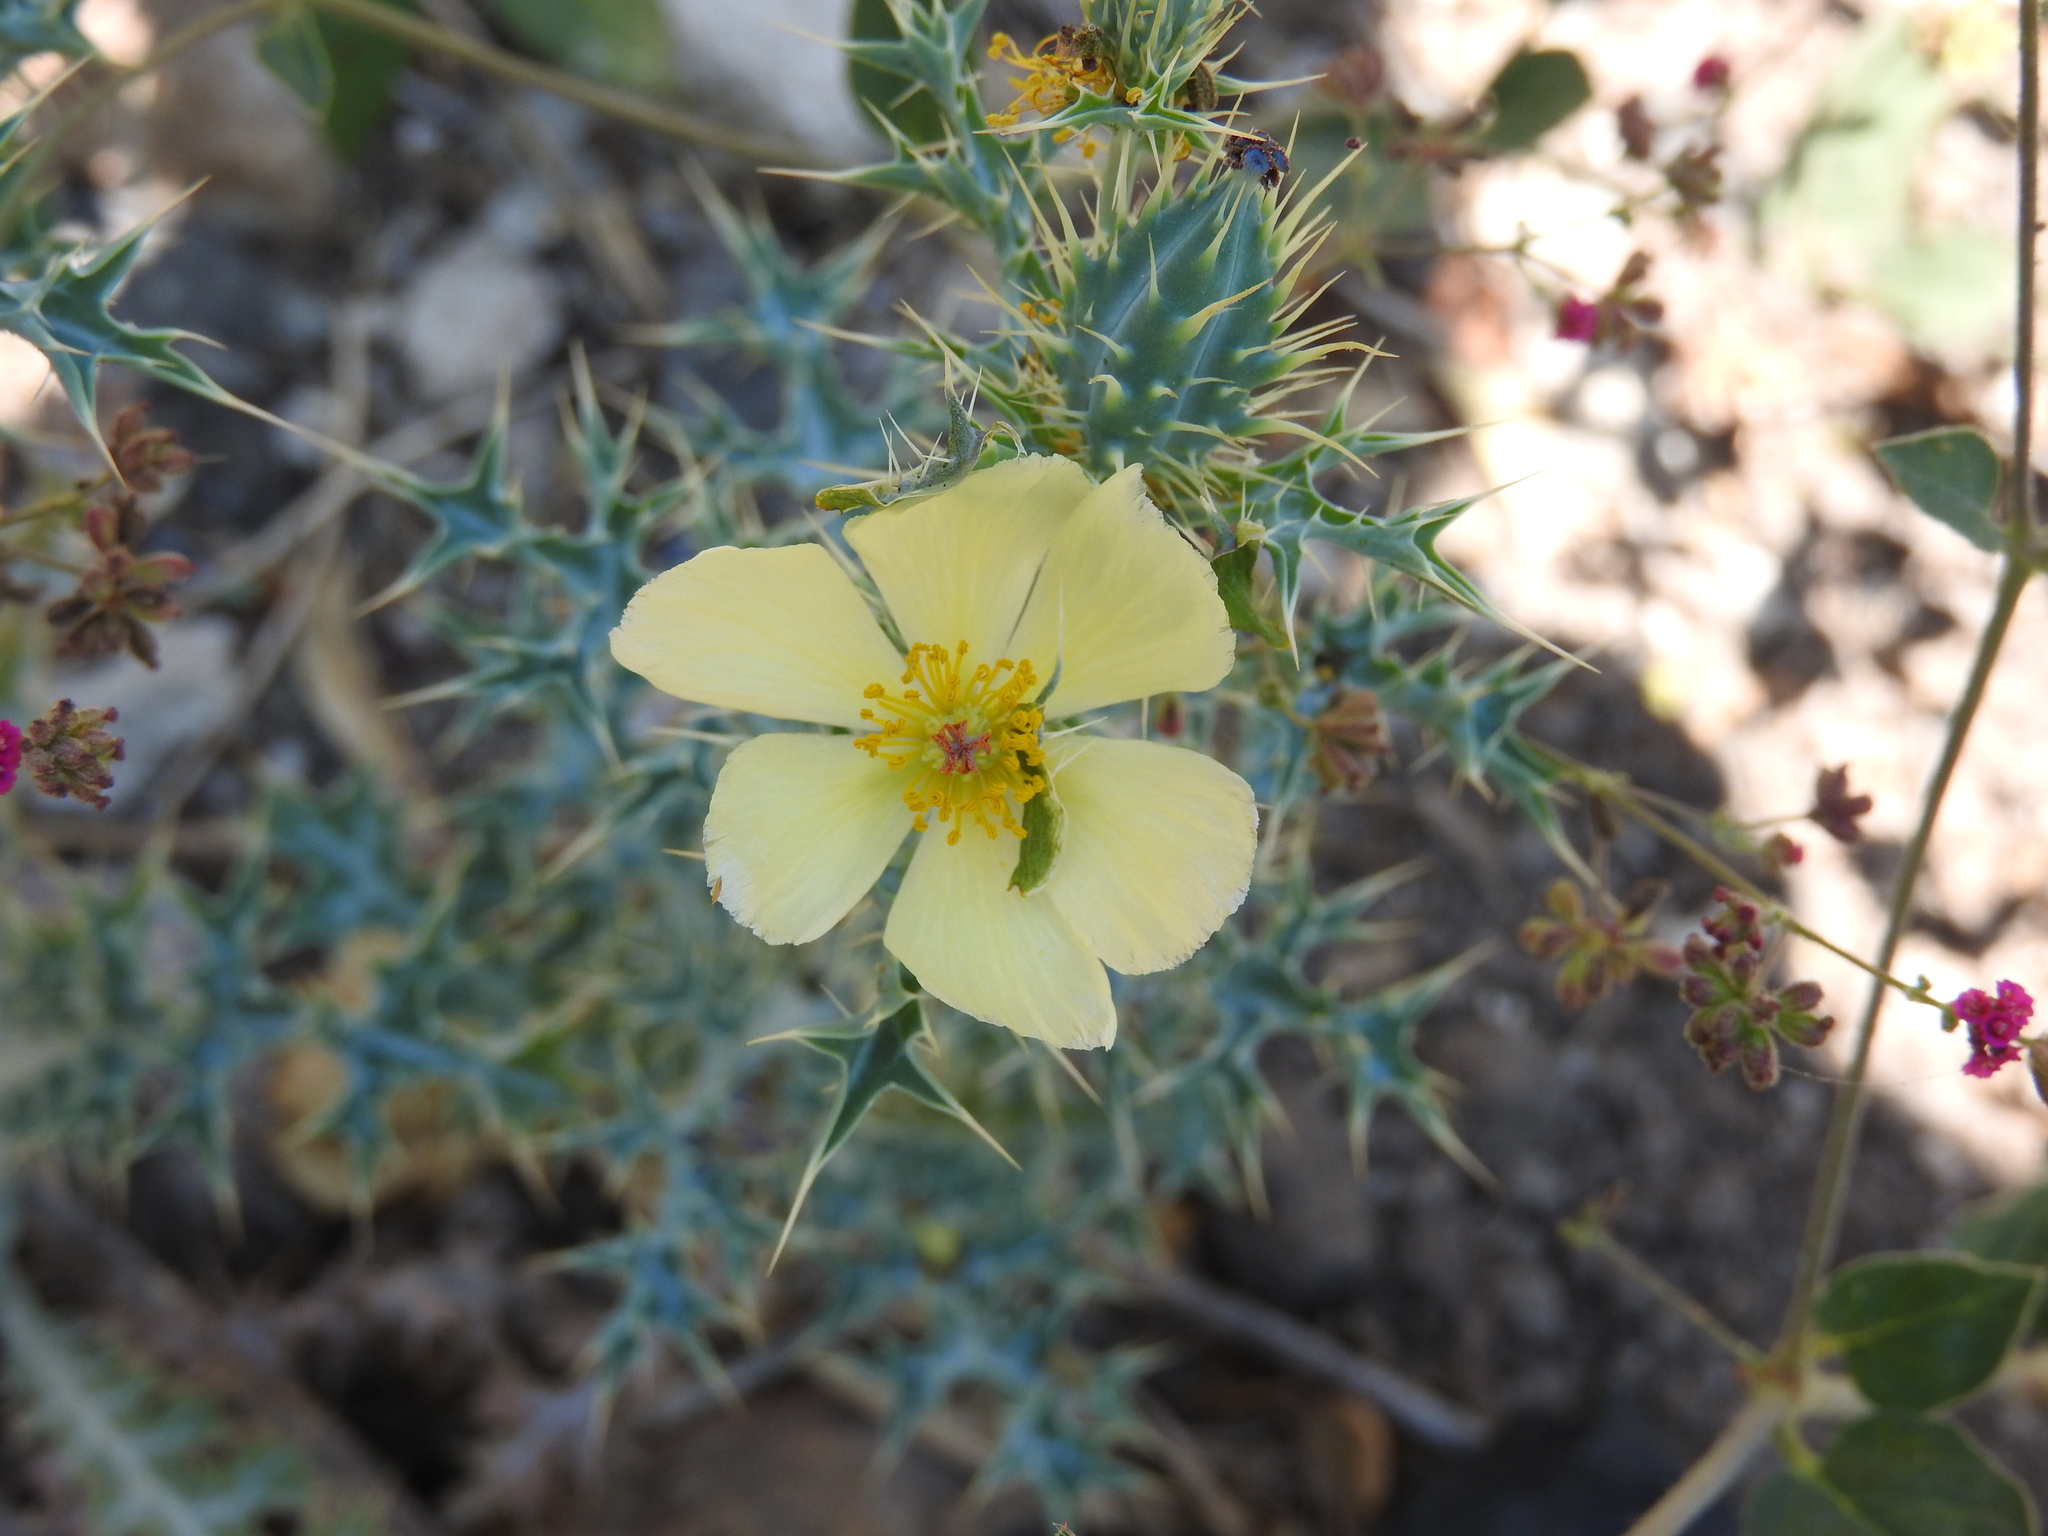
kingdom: Plantae
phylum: Tracheophyta
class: Magnoliopsida
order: Ranunculales
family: Papaveraceae
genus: Argemone
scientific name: Argemone ochroleuca
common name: White-flower mexican-poppy
